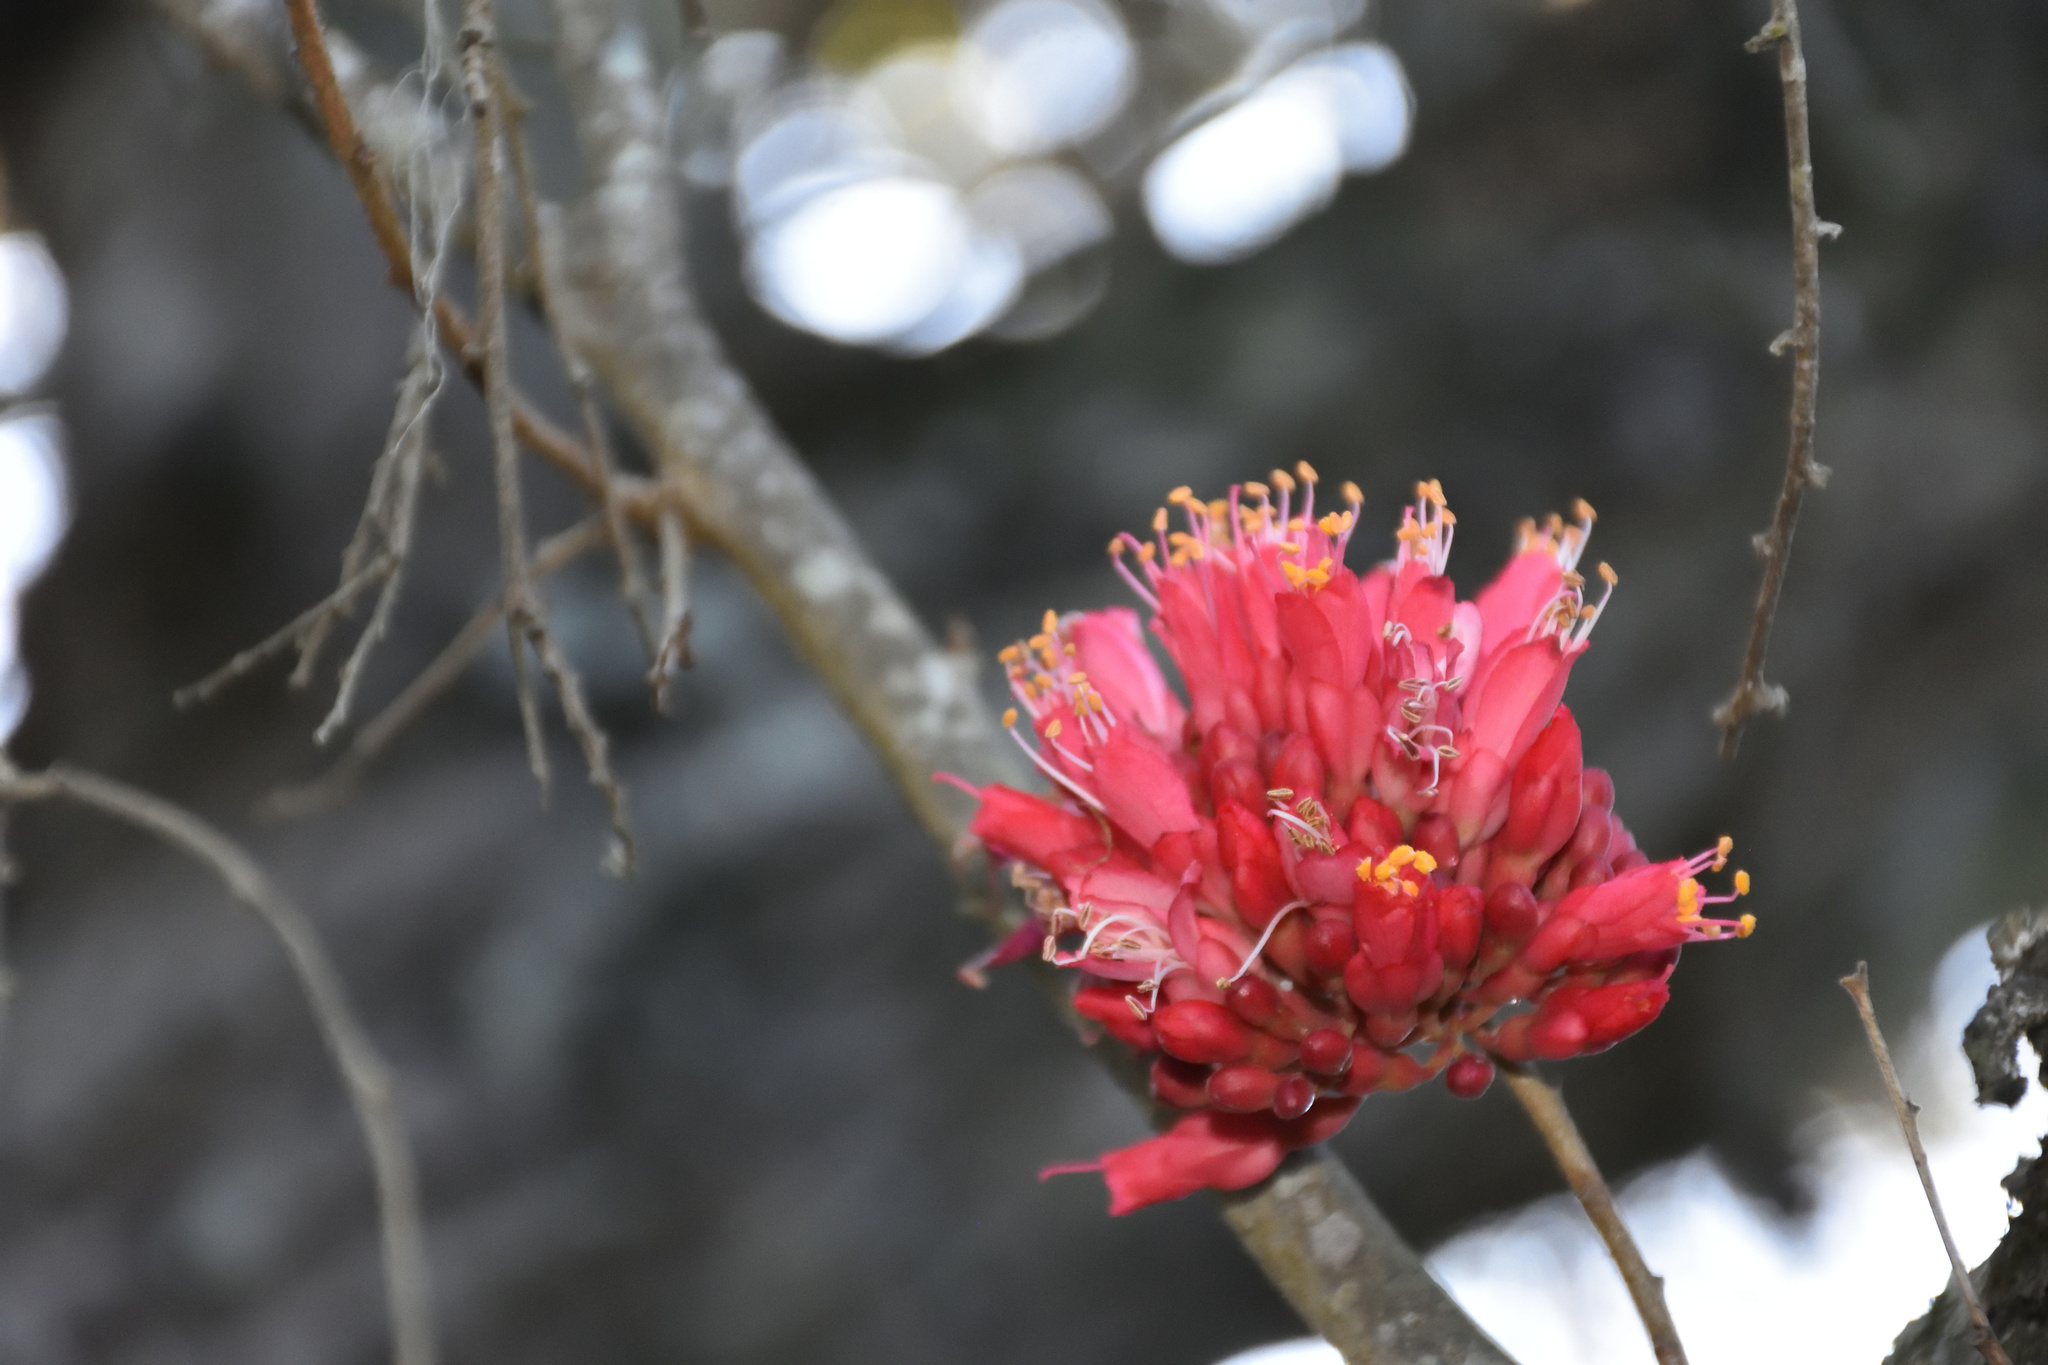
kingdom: Plantae
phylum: Tracheophyta
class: Magnoliopsida
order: Fabales
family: Fabaceae
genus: Schotia
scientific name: Schotia afra
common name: Hottentot's bean
